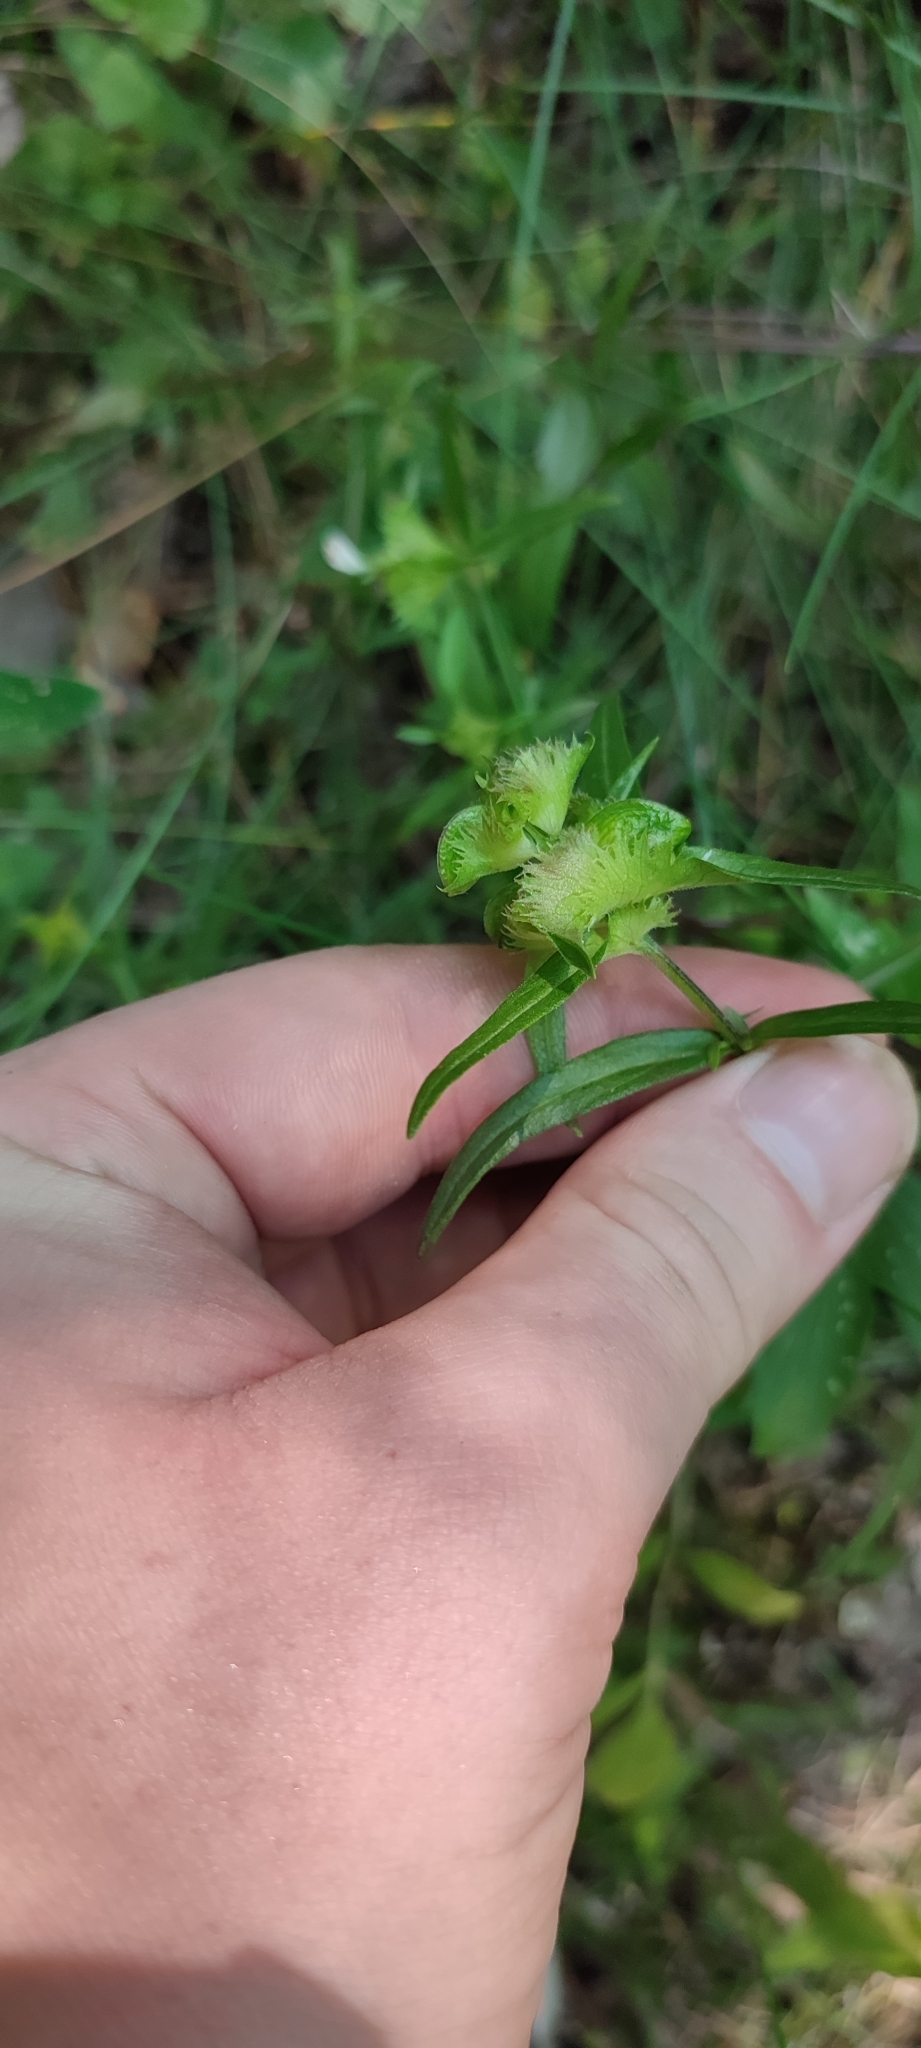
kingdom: Plantae
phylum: Tracheophyta
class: Magnoliopsida
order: Lamiales
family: Orobanchaceae
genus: Melampyrum
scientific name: Melampyrum cristatum
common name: Crested cow-wheat
